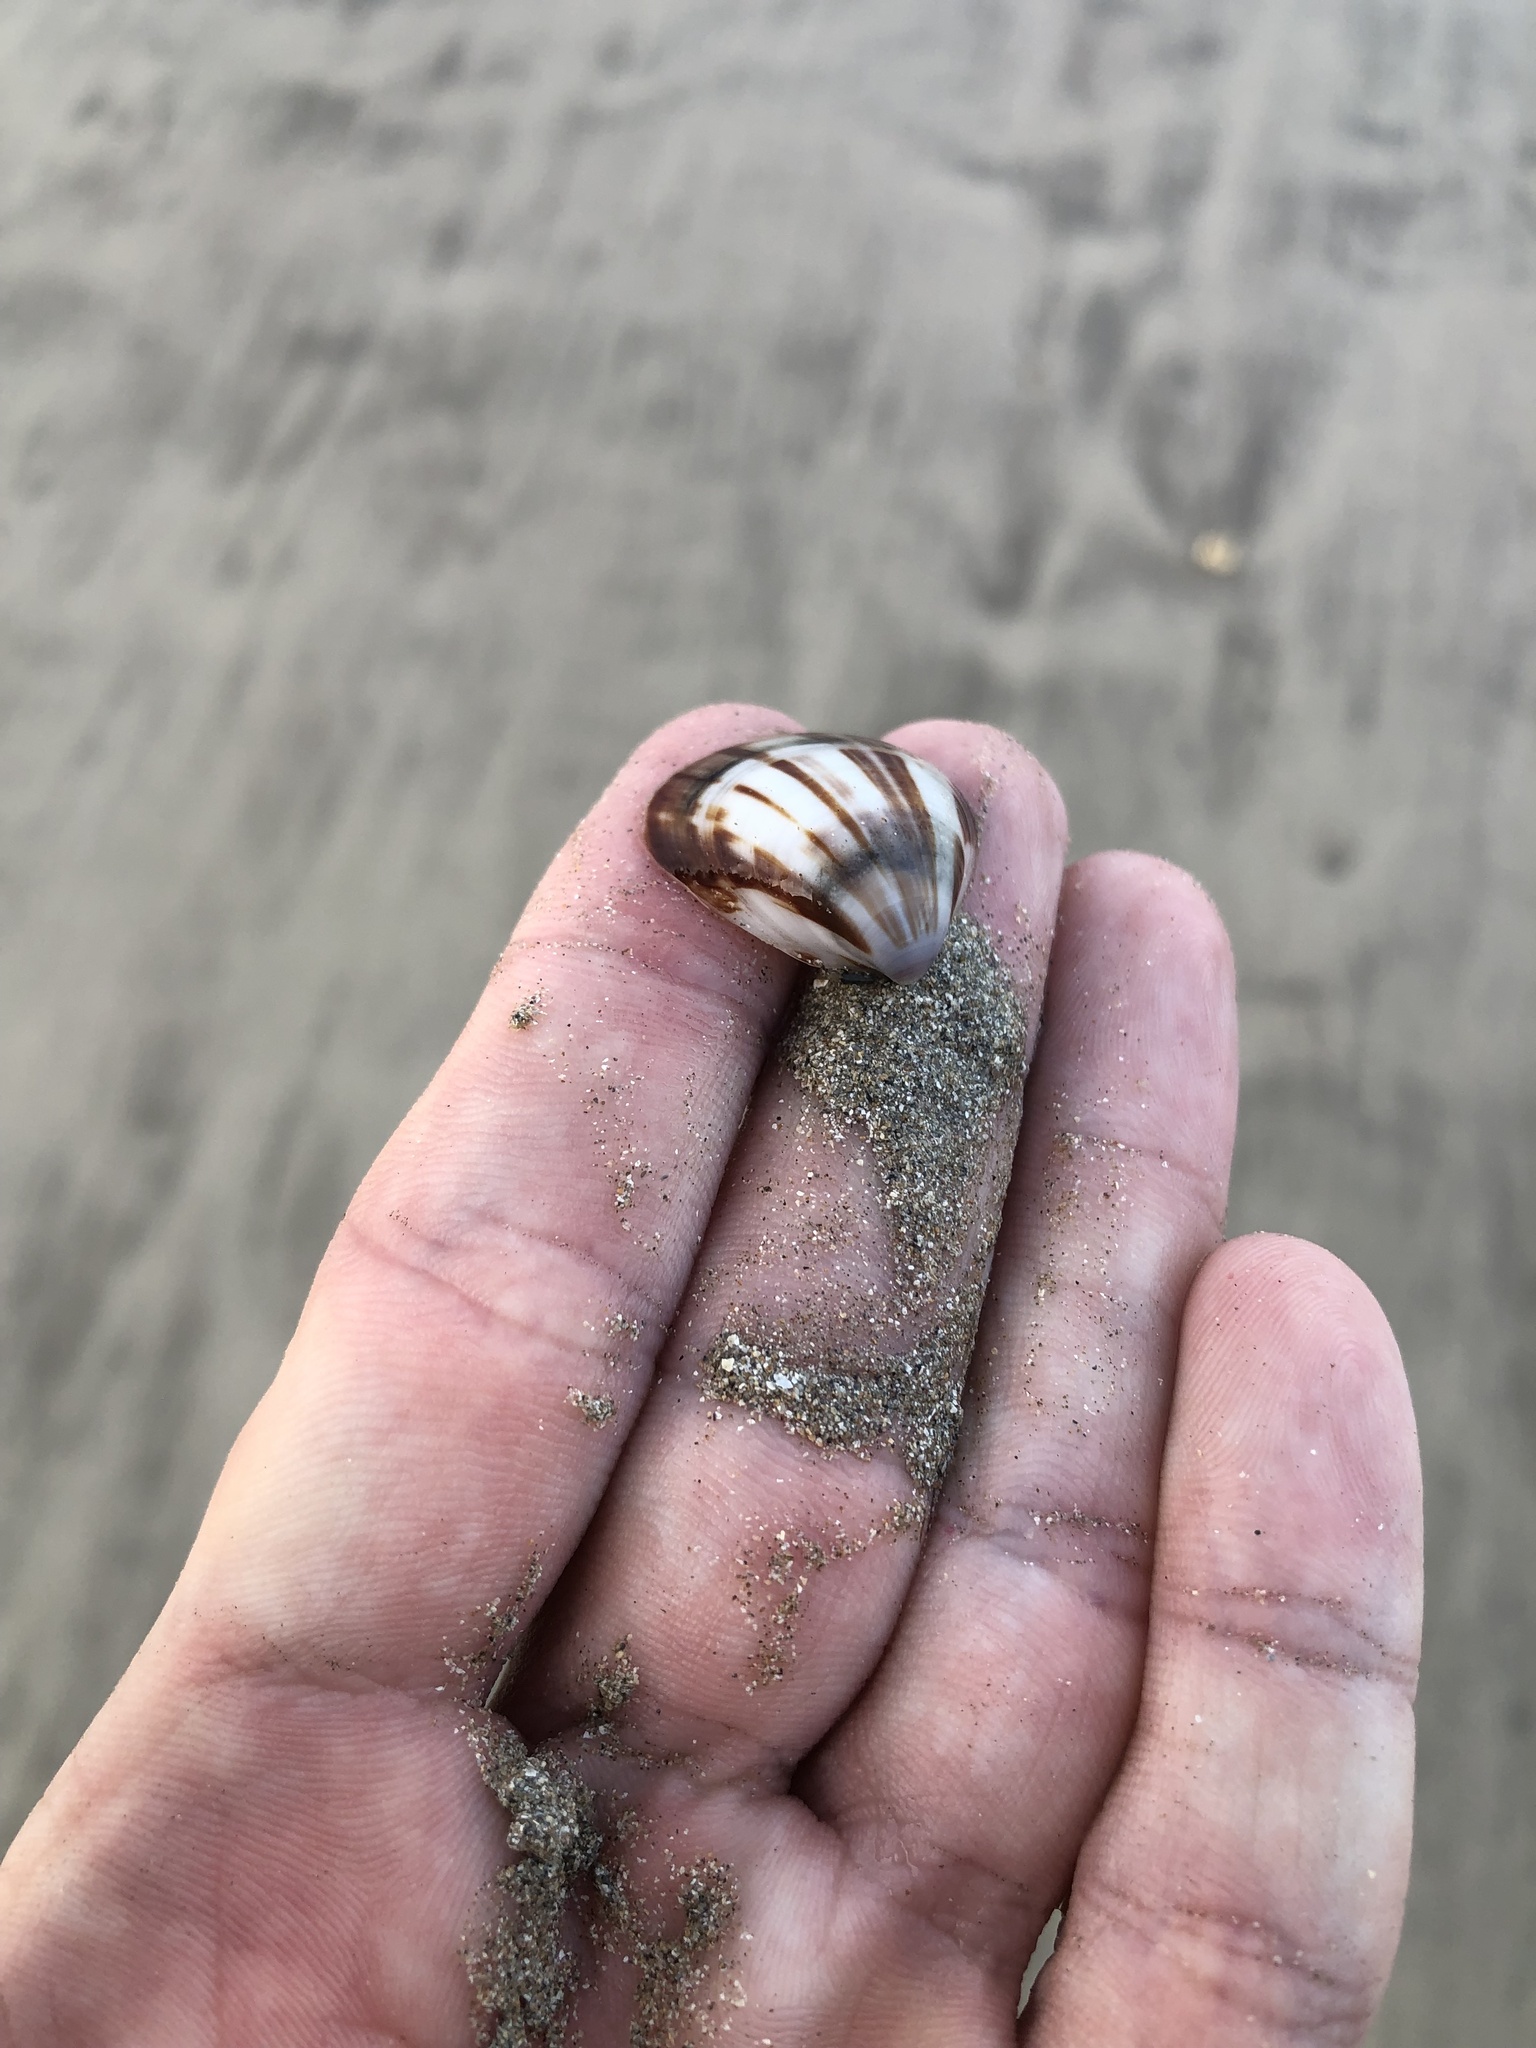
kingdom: Animalia
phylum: Mollusca
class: Bivalvia
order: Venerida
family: Veneridae
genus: Tivela
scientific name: Tivela mactroides
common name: Trigonal tivela
